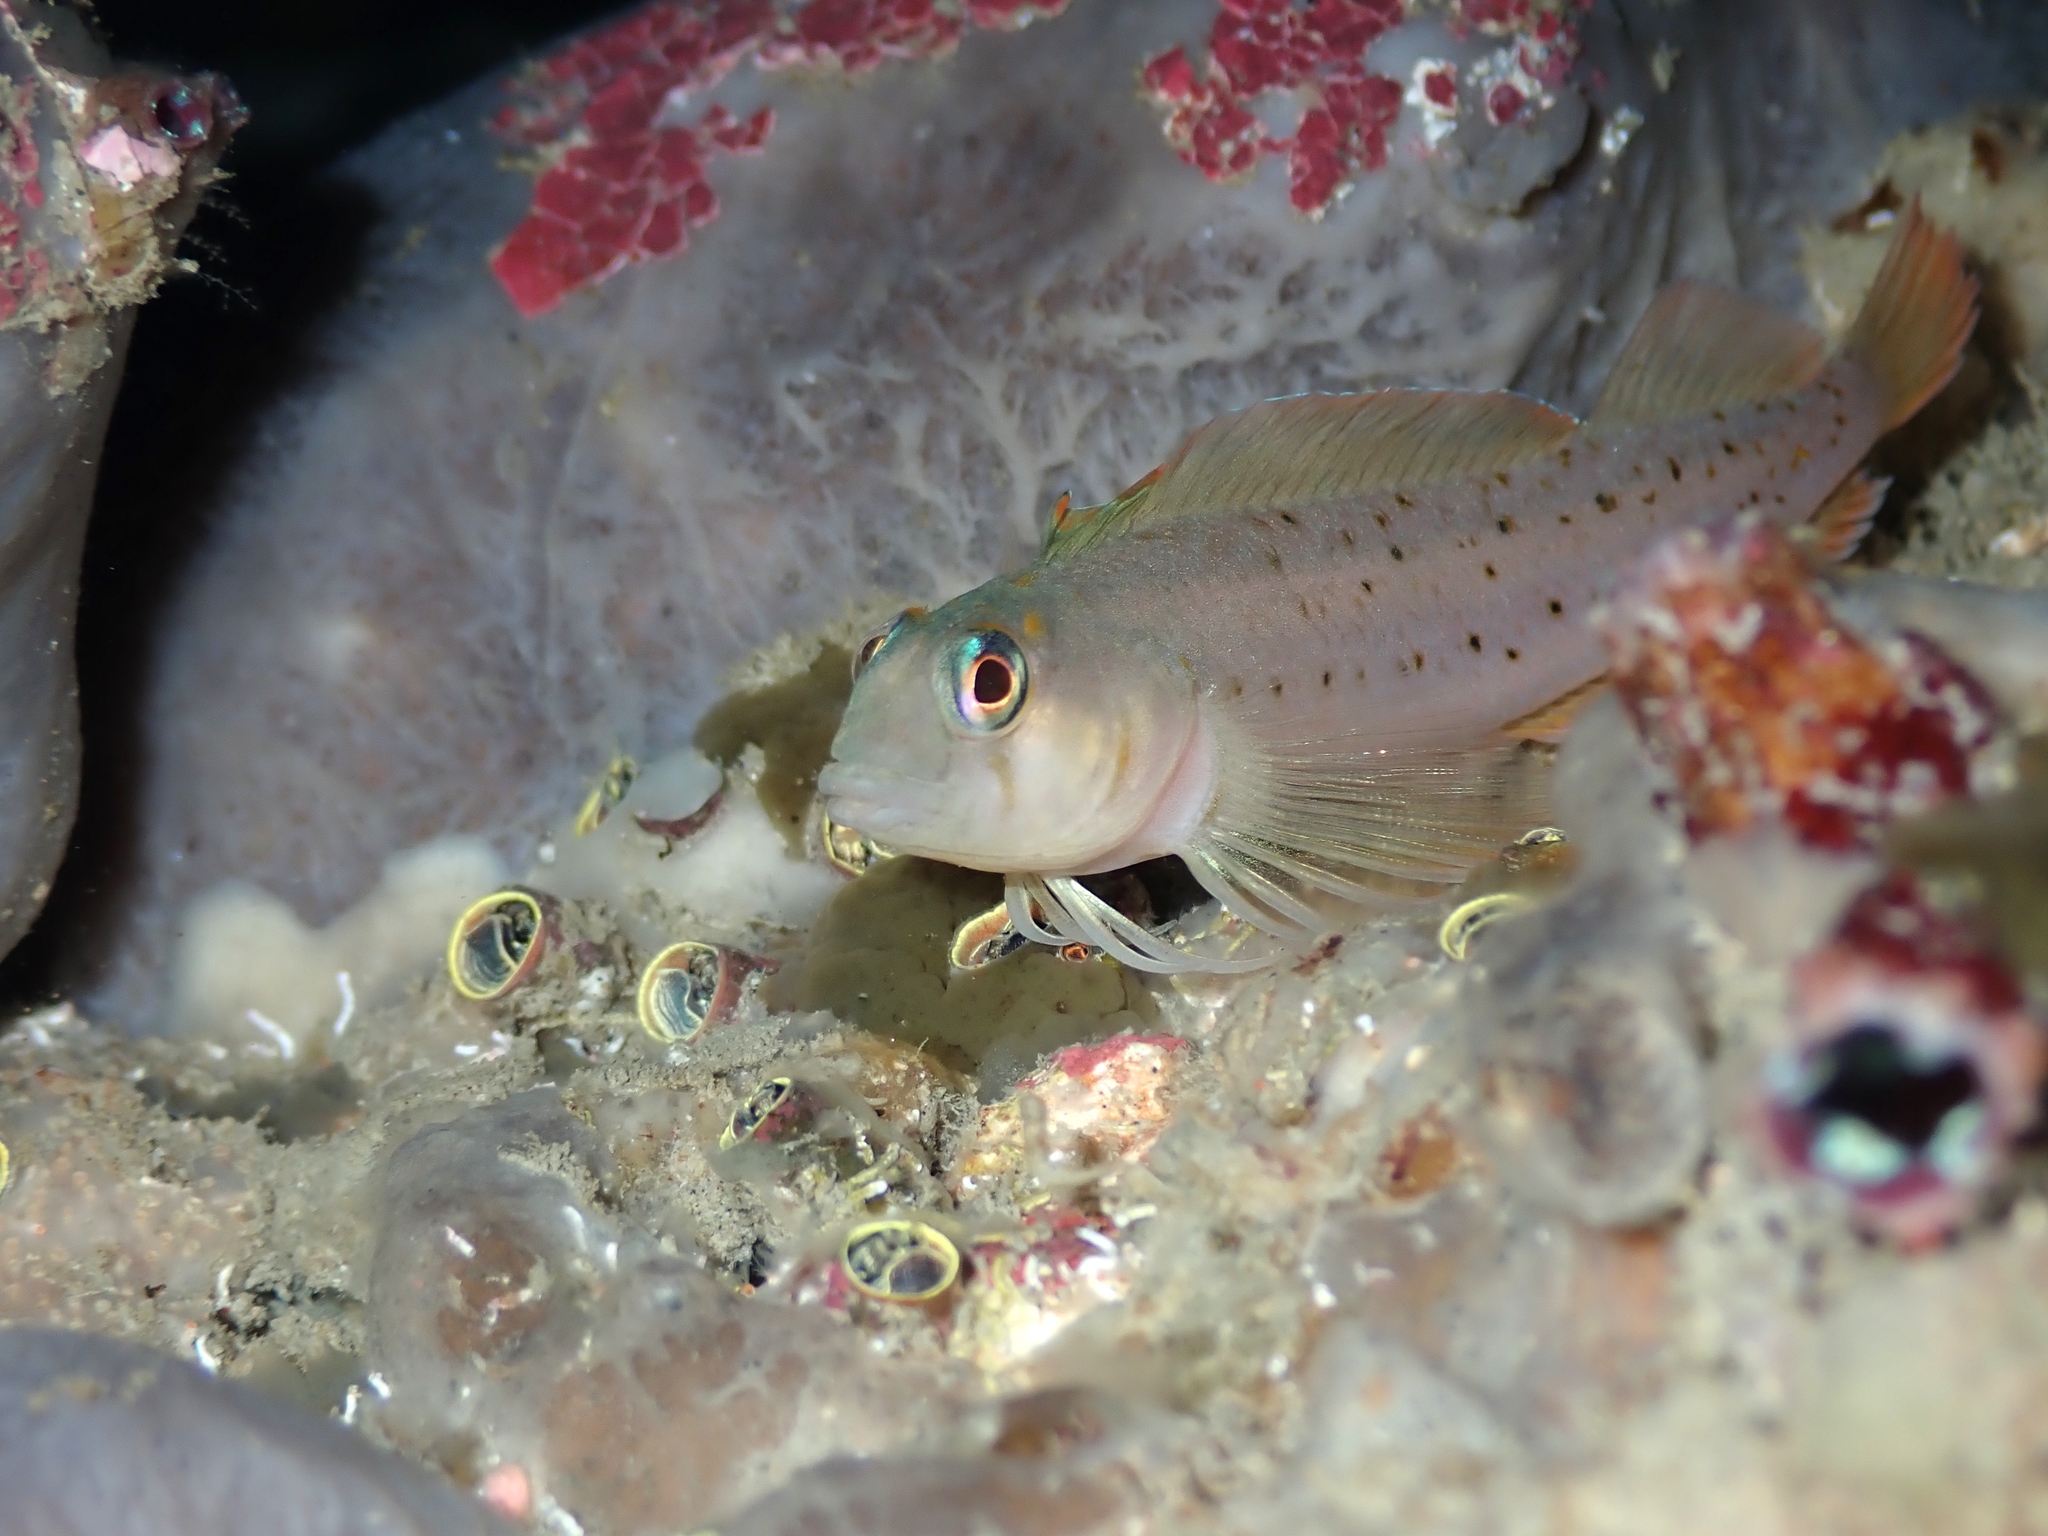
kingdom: Animalia
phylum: Chordata
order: Perciformes
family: Tripterygiidae
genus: Notoclinops
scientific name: Notoclinops yaldwyni
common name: Yaldwyn's triplefin
